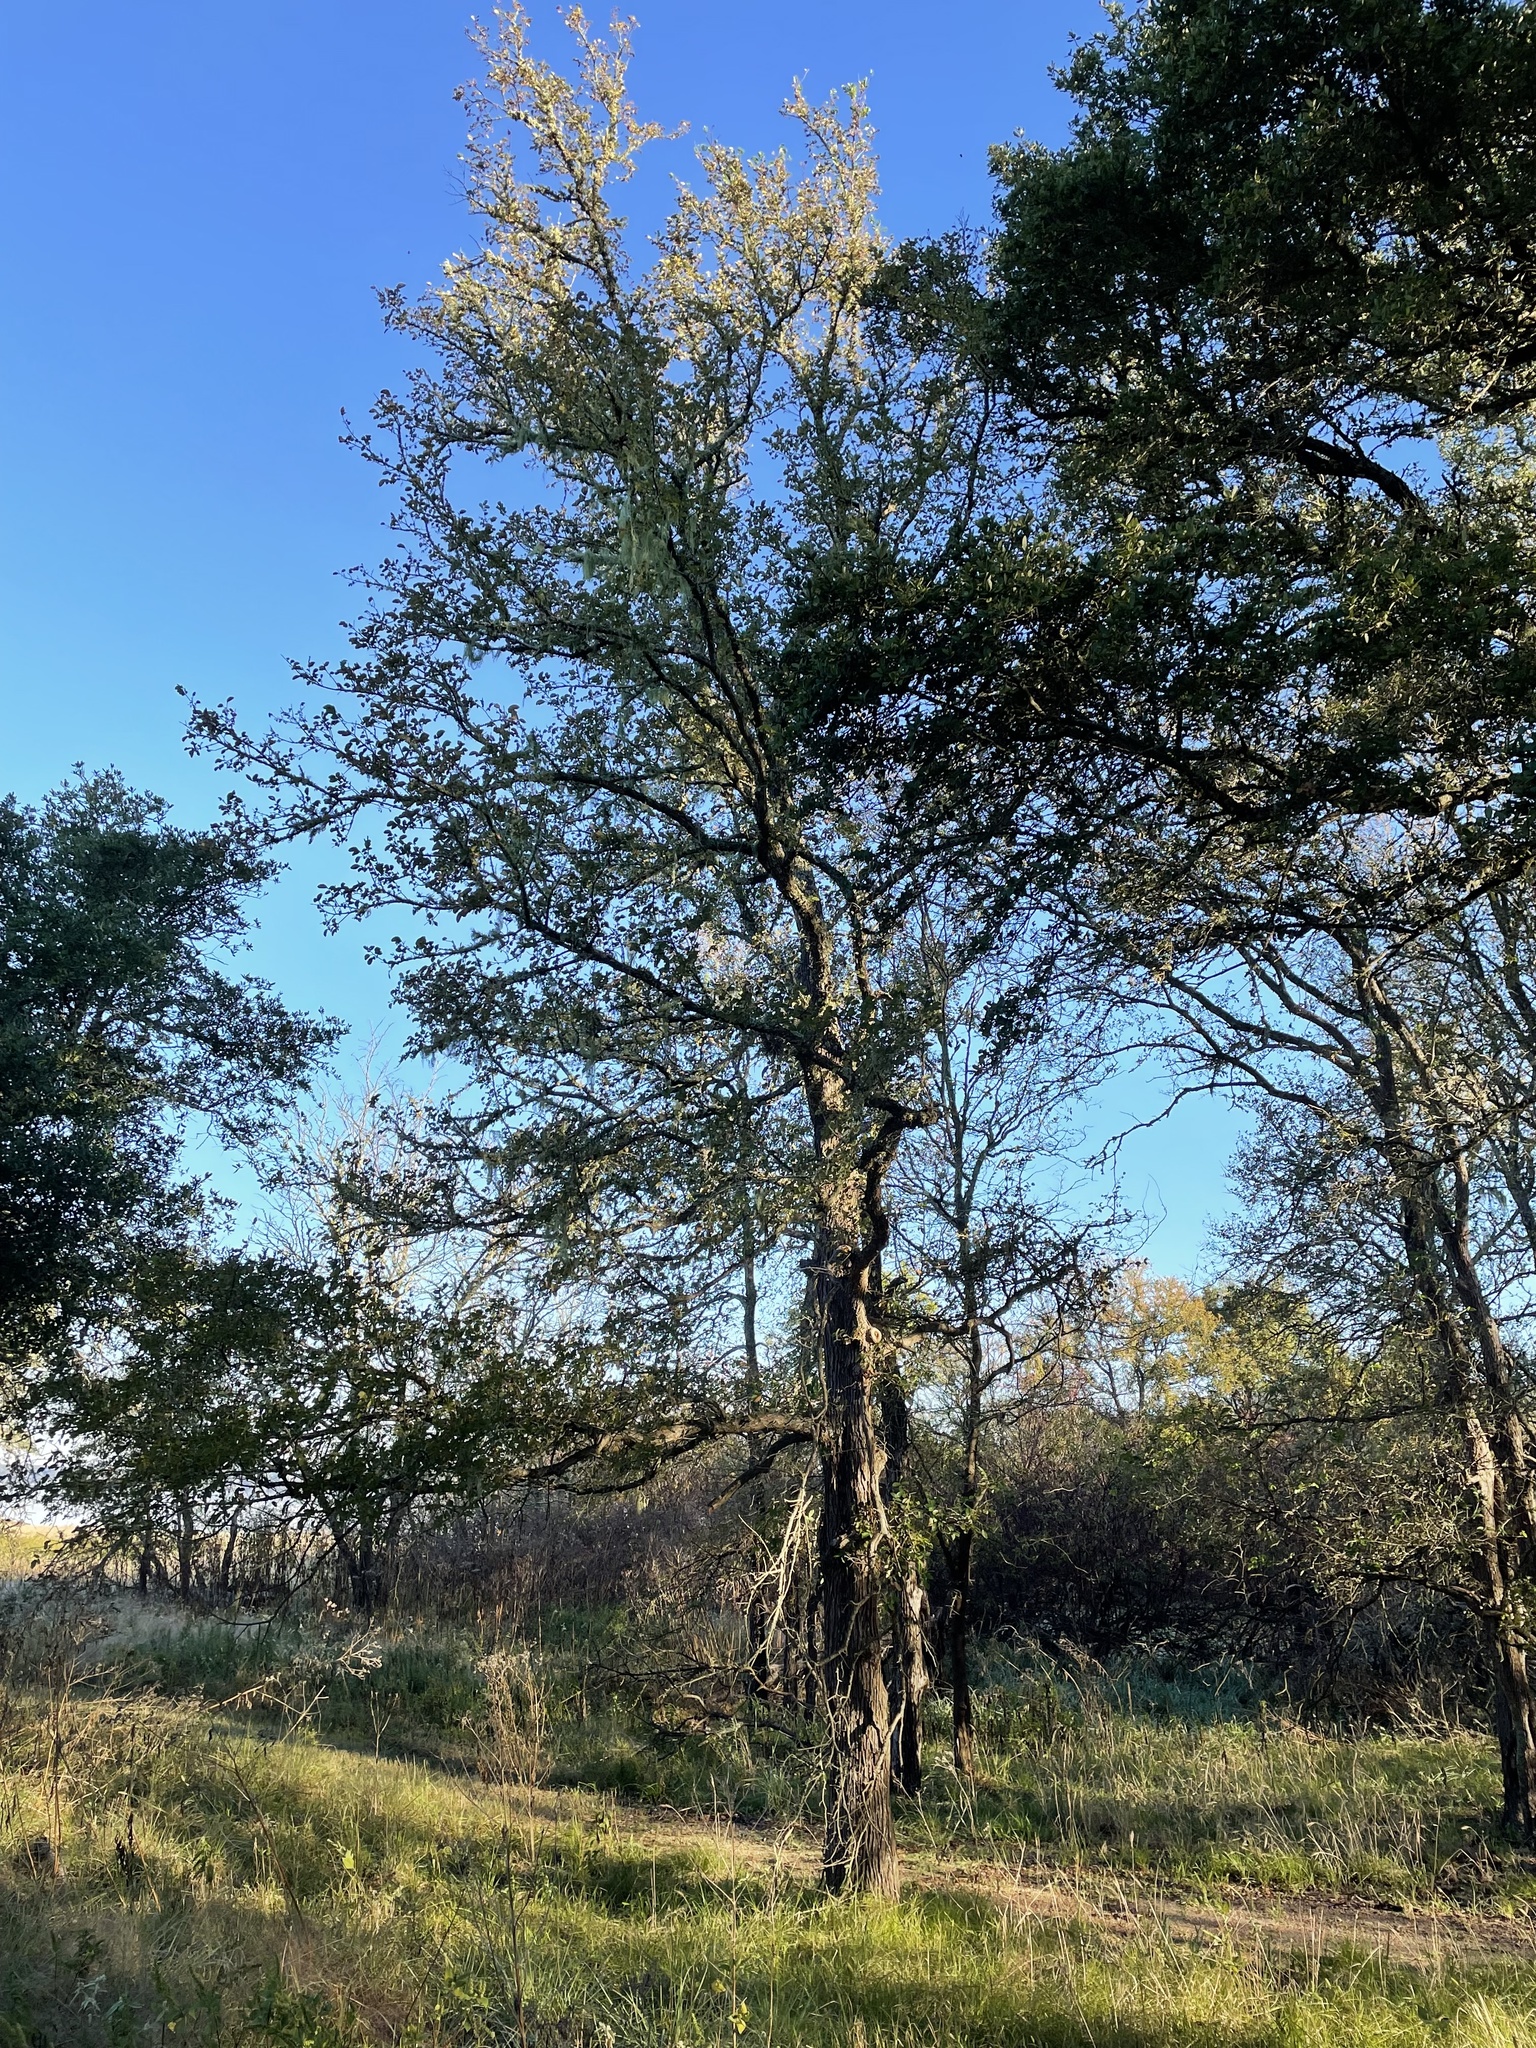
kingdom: Plantae
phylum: Tracheophyta
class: Magnoliopsida
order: Rosales
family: Ulmaceae
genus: Ulmus
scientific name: Ulmus crassifolia
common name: Basket elm
